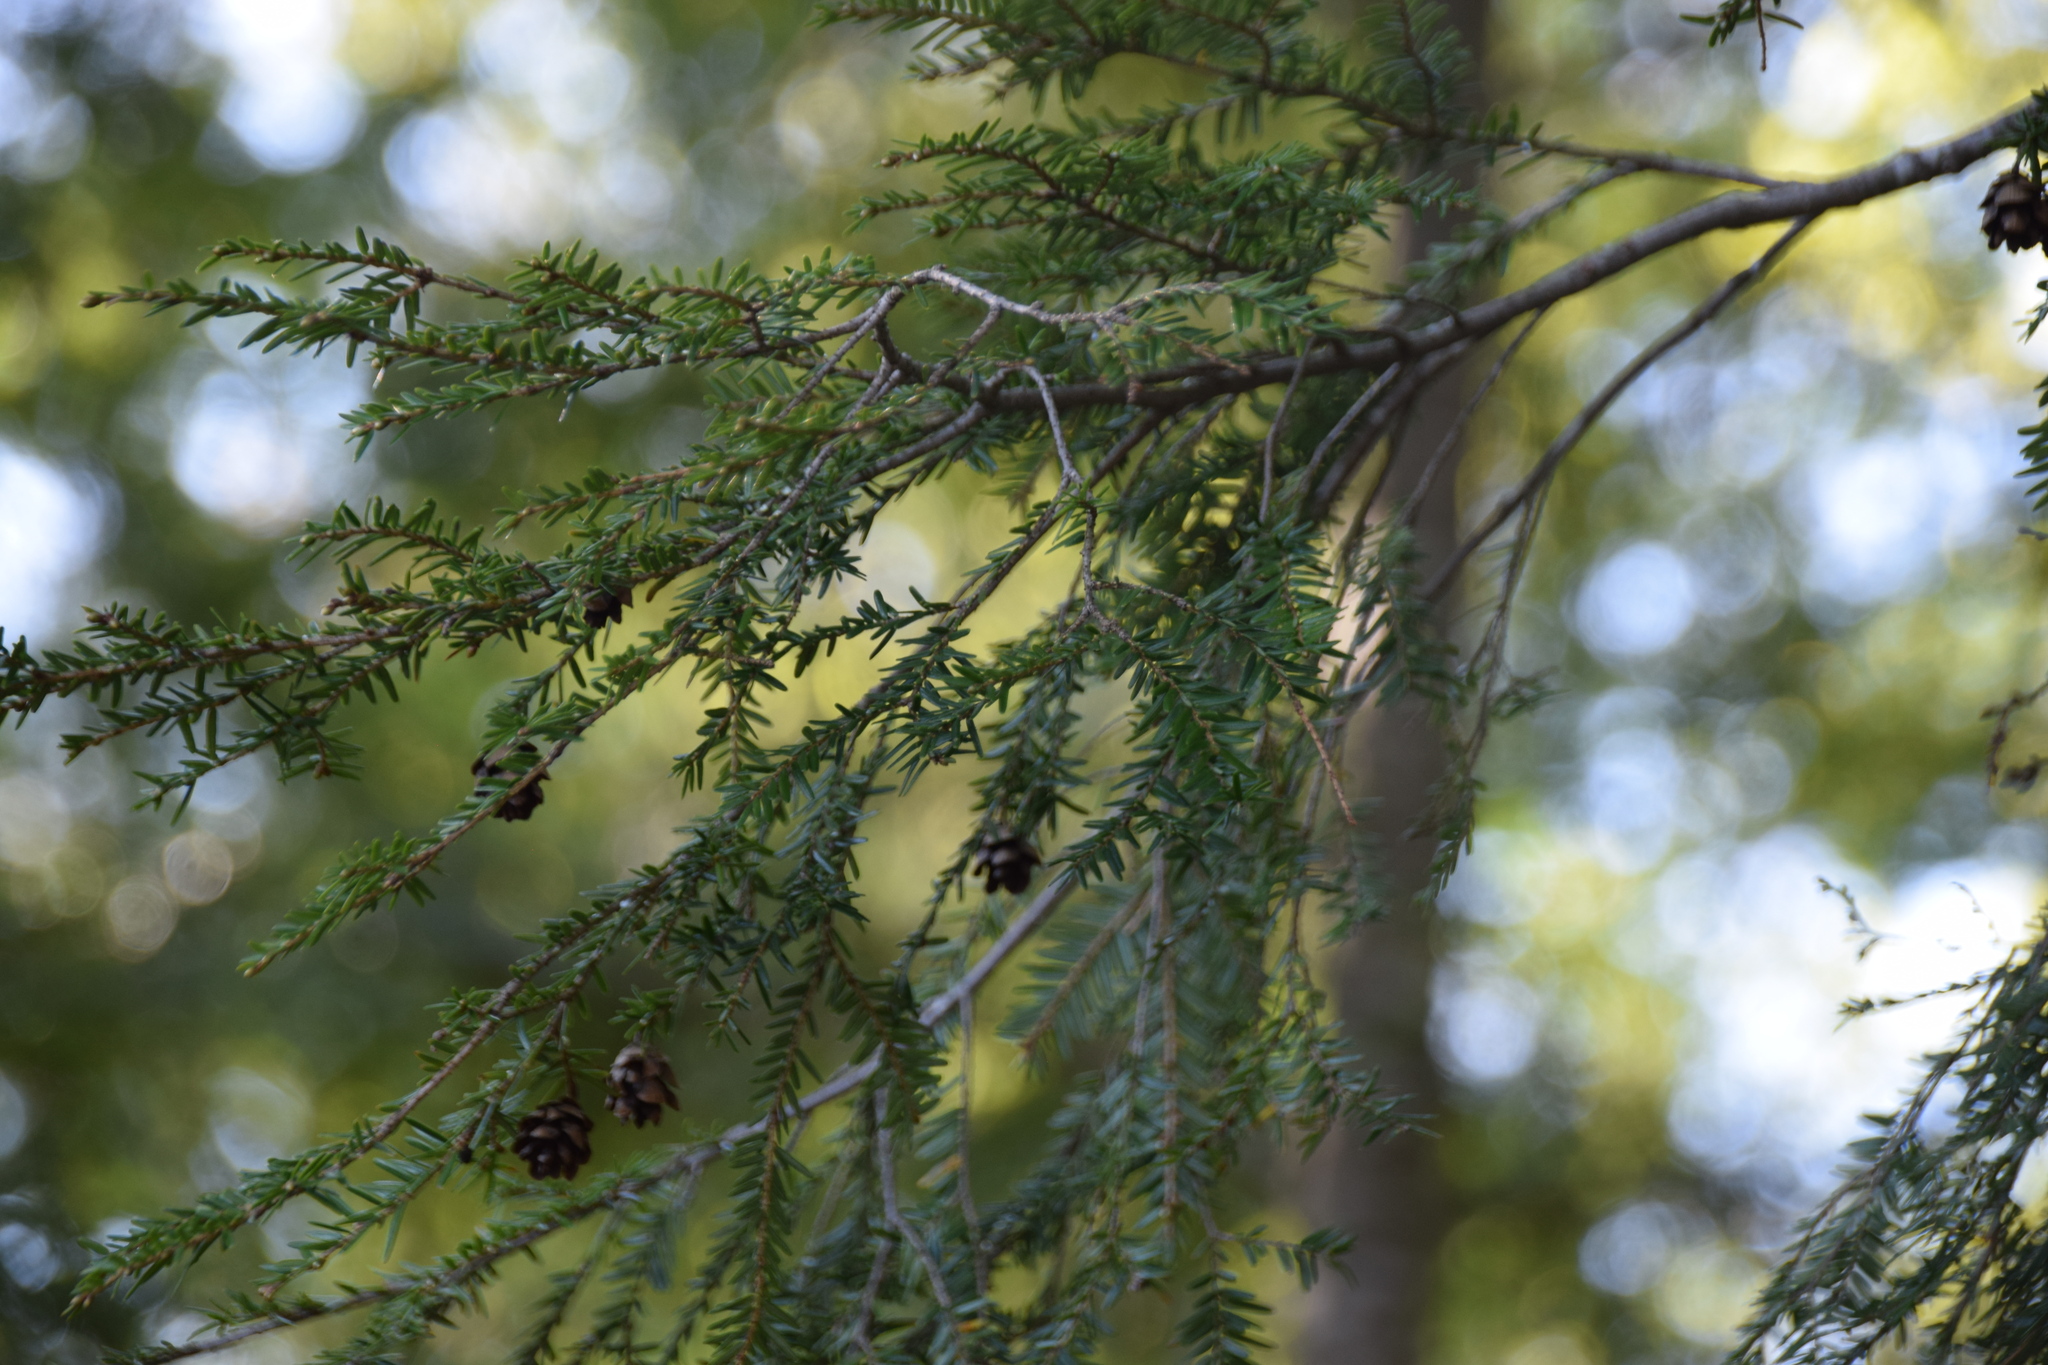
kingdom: Plantae
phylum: Tracheophyta
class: Pinopsida
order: Pinales
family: Pinaceae
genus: Tsuga
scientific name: Tsuga canadensis
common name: Eastern hemlock
